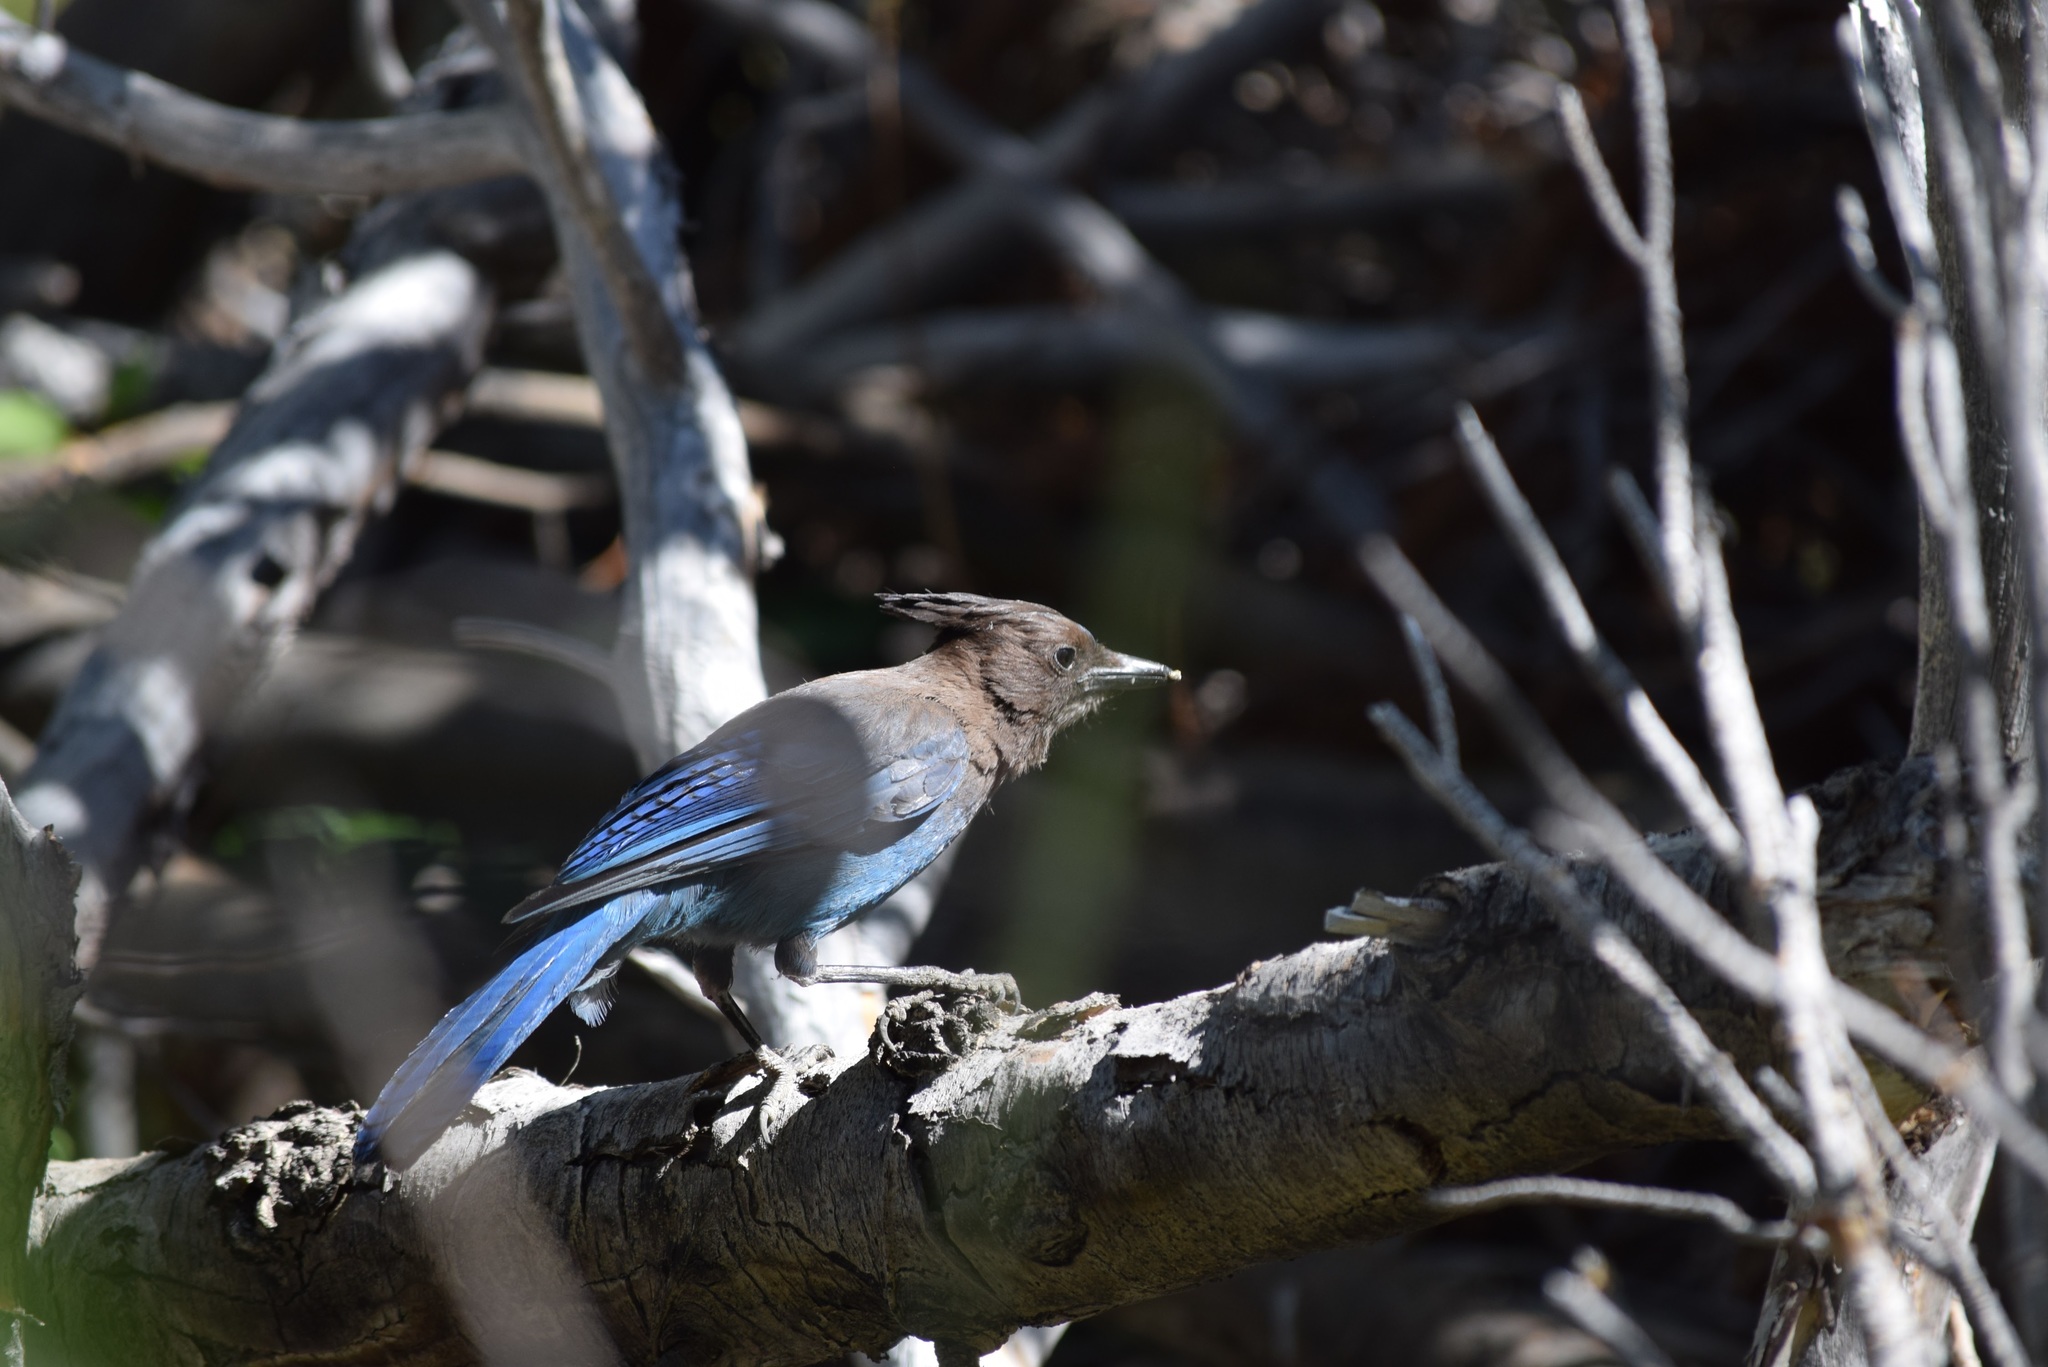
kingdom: Animalia
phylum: Chordata
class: Aves
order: Passeriformes
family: Corvidae
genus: Cyanocitta
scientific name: Cyanocitta stelleri
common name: Steller's jay
